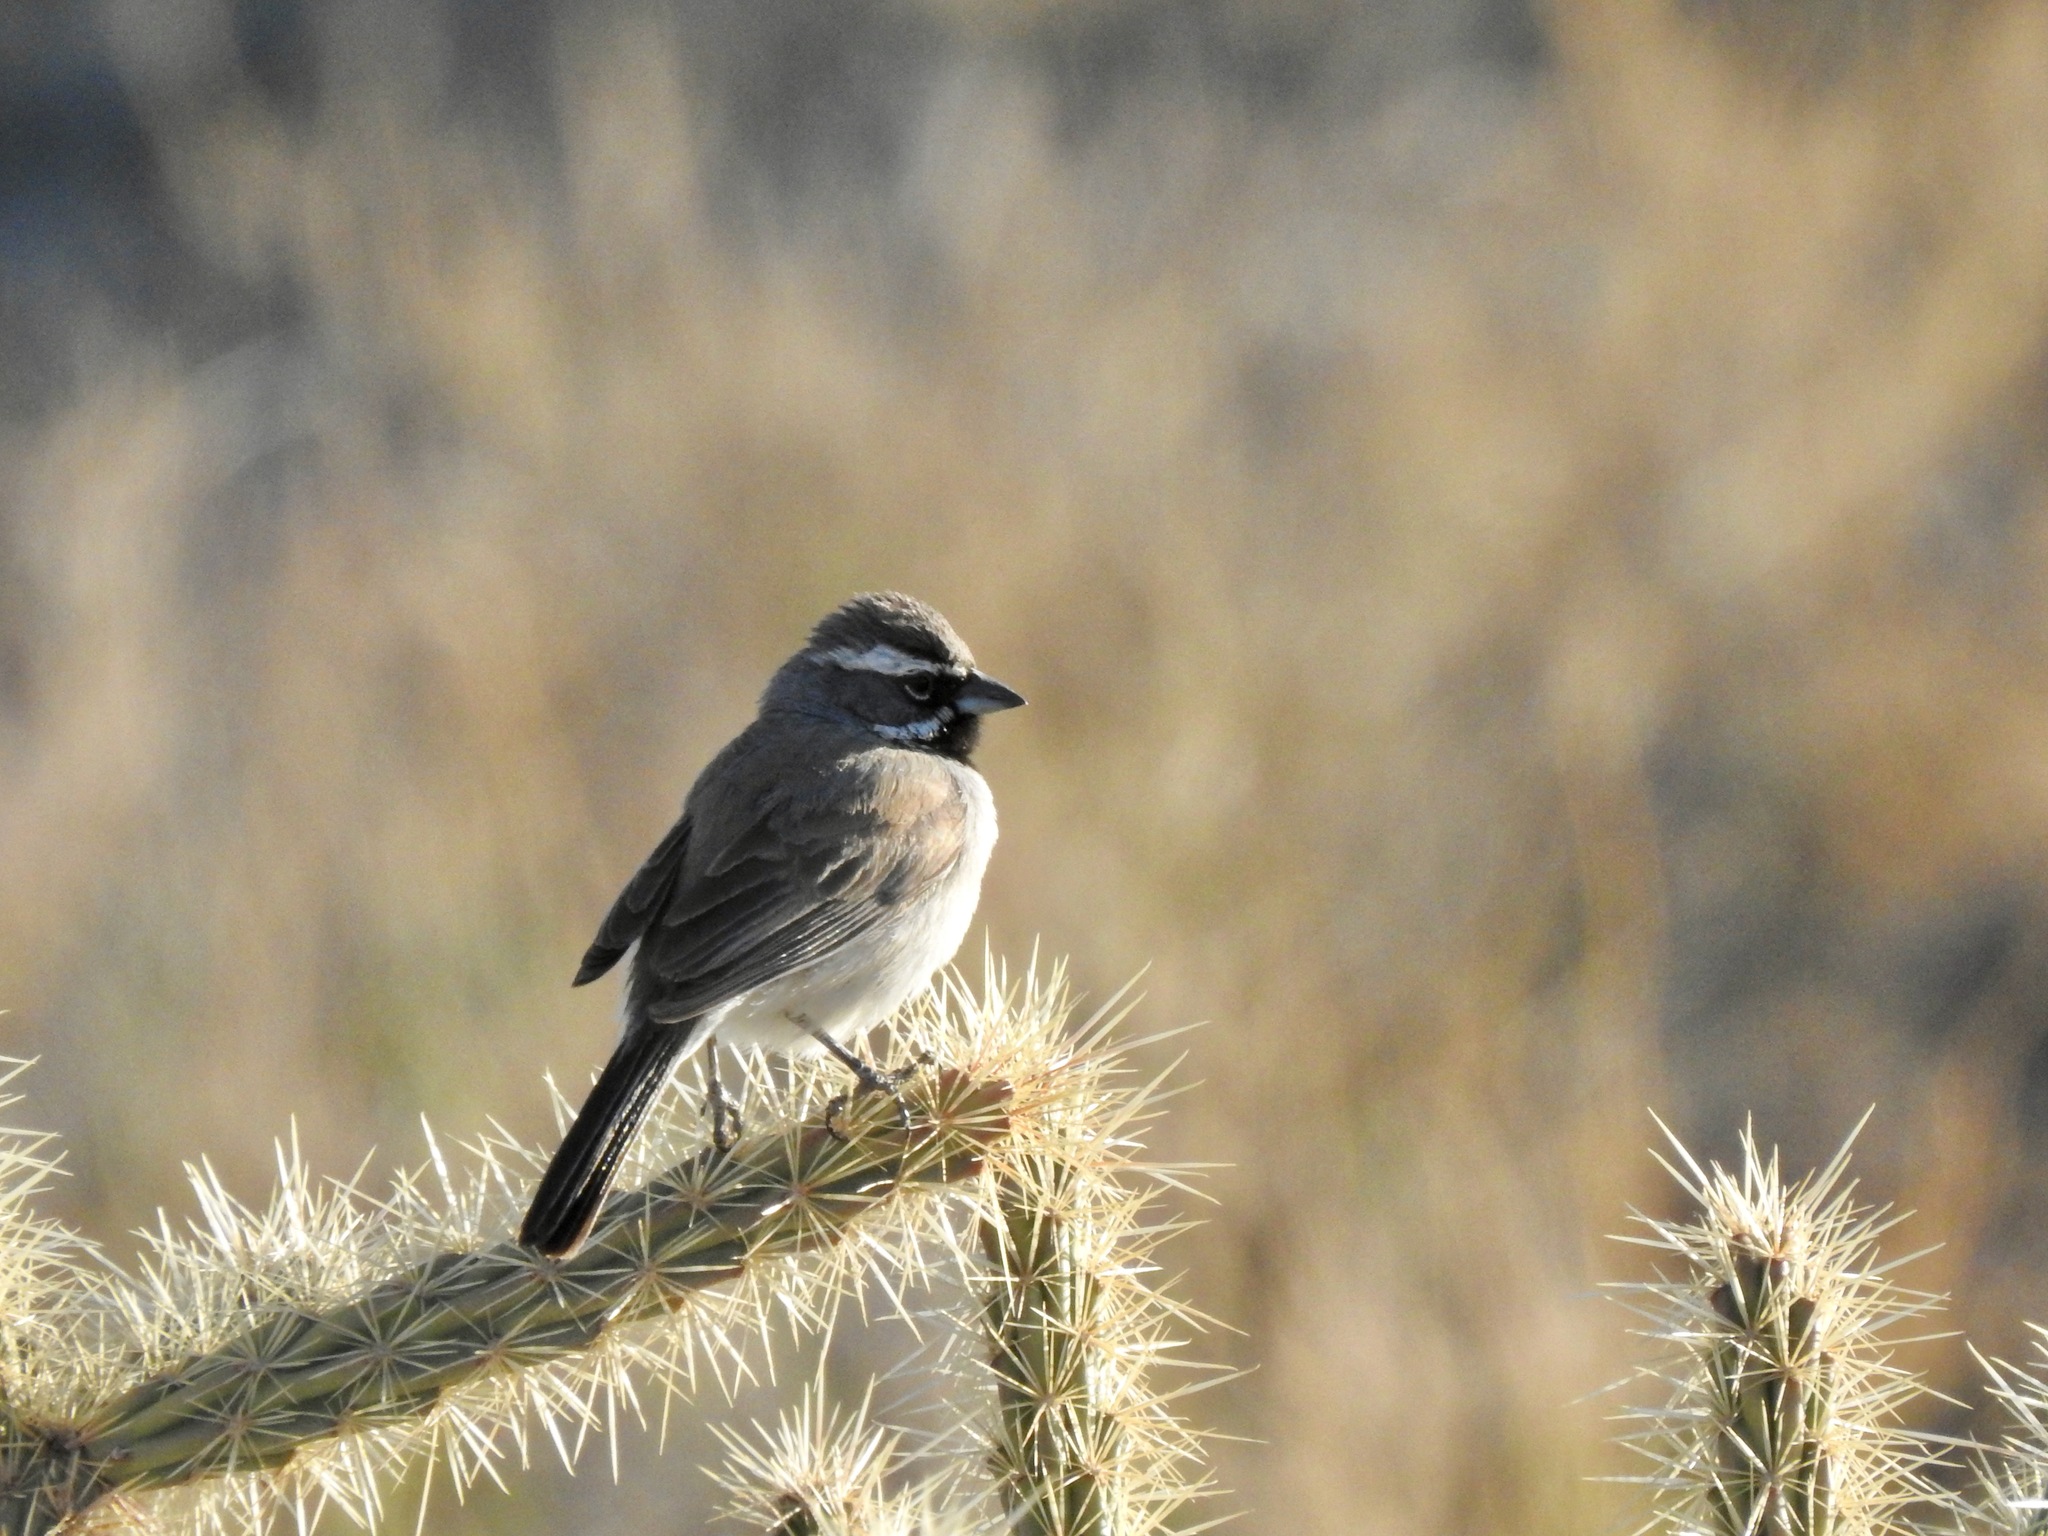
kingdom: Animalia
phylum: Chordata
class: Aves
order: Passeriformes
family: Passerellidae
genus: Amphispiza
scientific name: Amphispiza bilineata
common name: Black-throated sparrow
